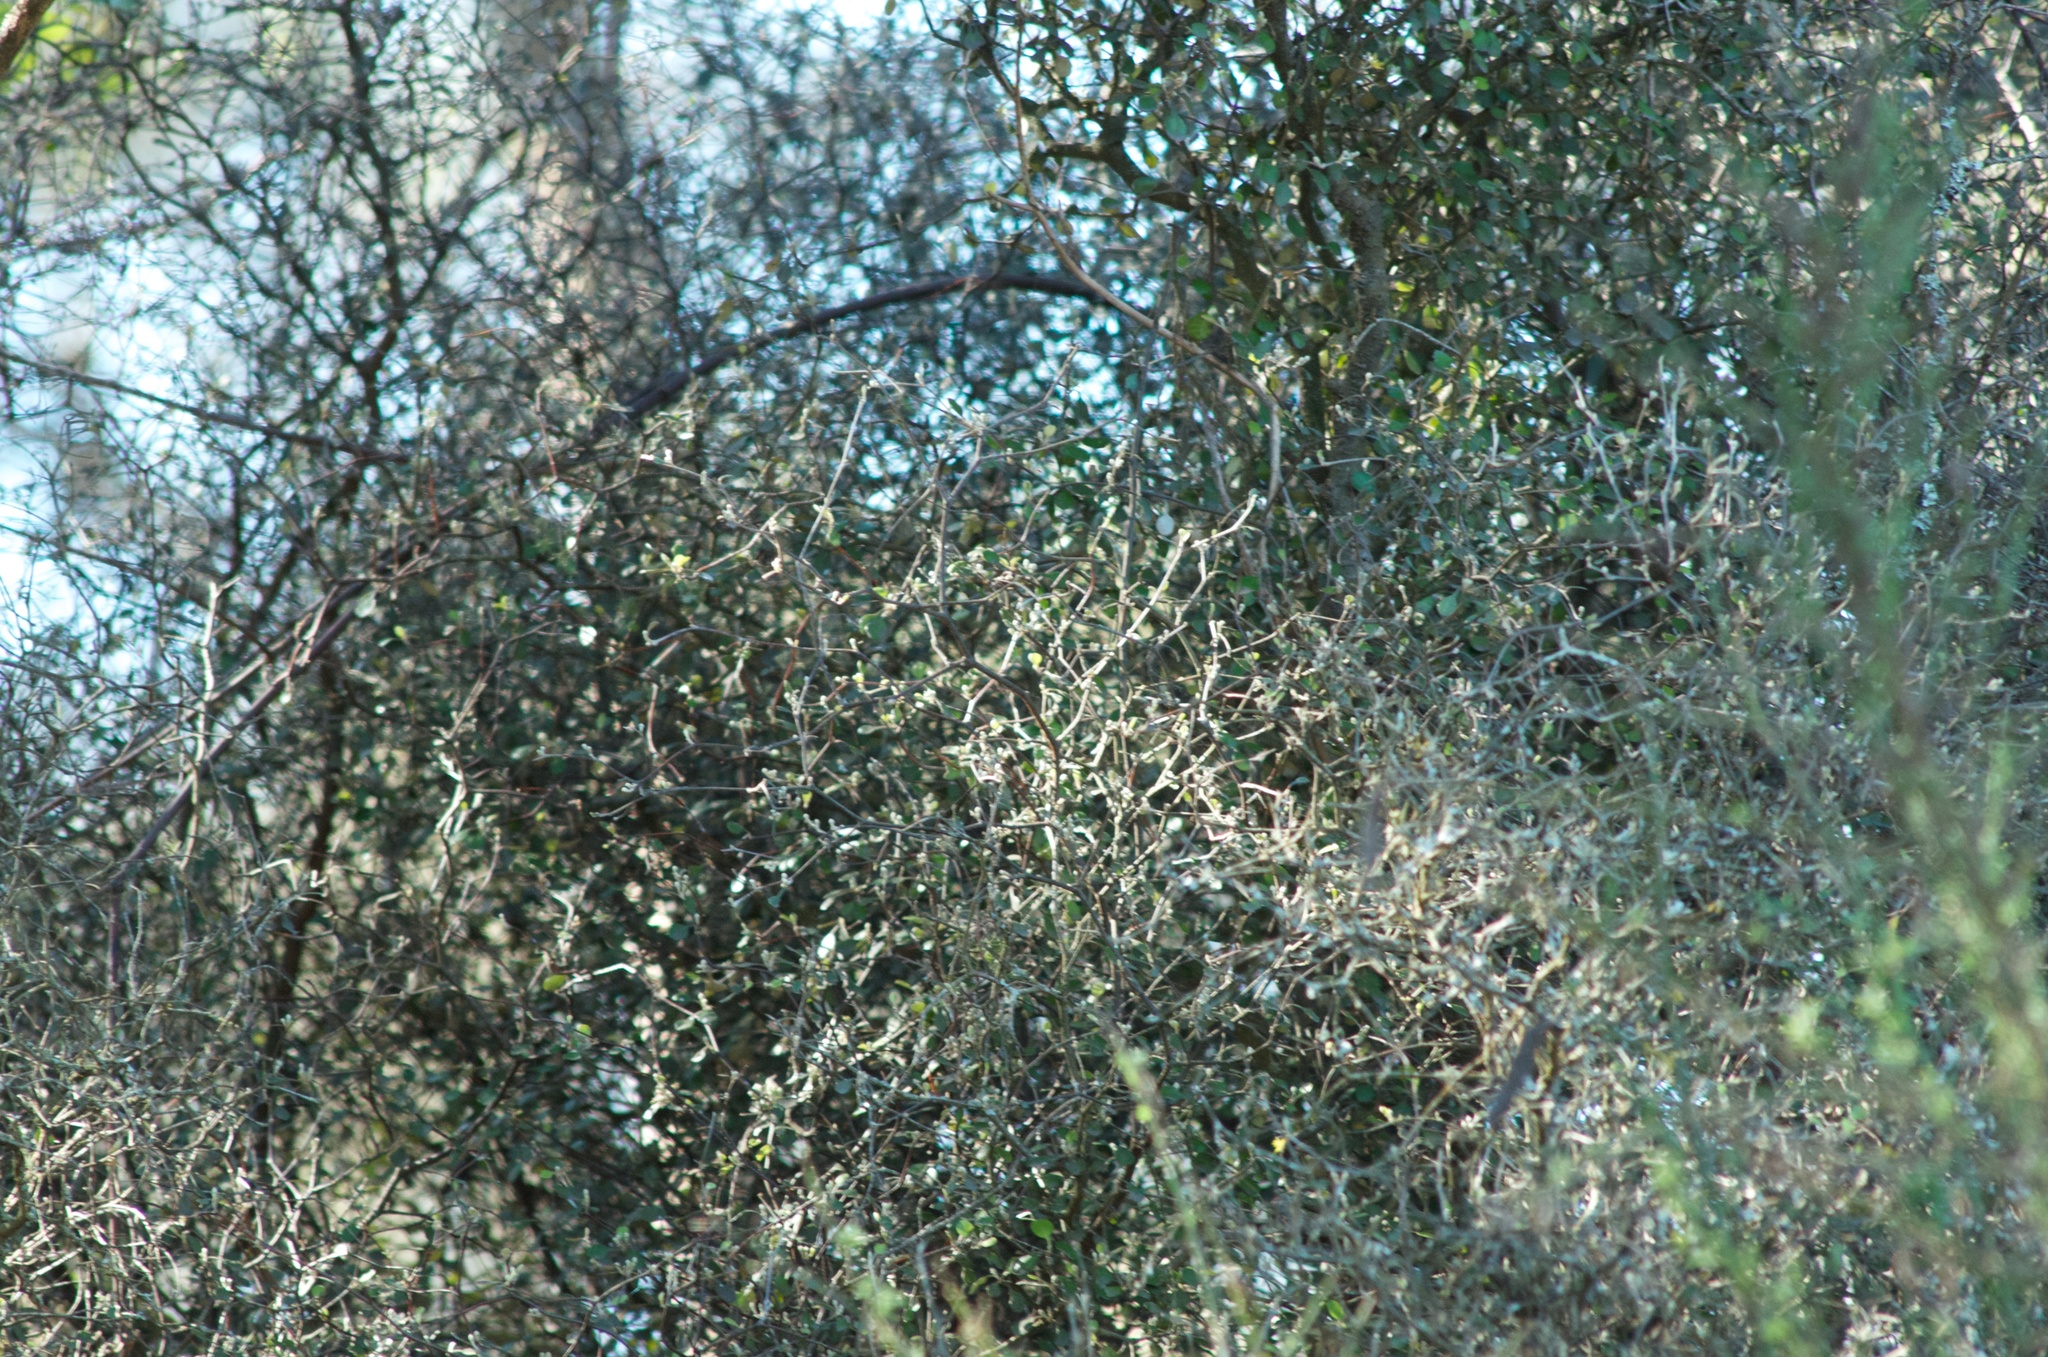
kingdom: Plantae
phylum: Tracheophyta
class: Magnoliopsida
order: Asterales
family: Argophyllaceae
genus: Corokia
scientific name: Corokia cotoneaster
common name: Wire nettingbush
